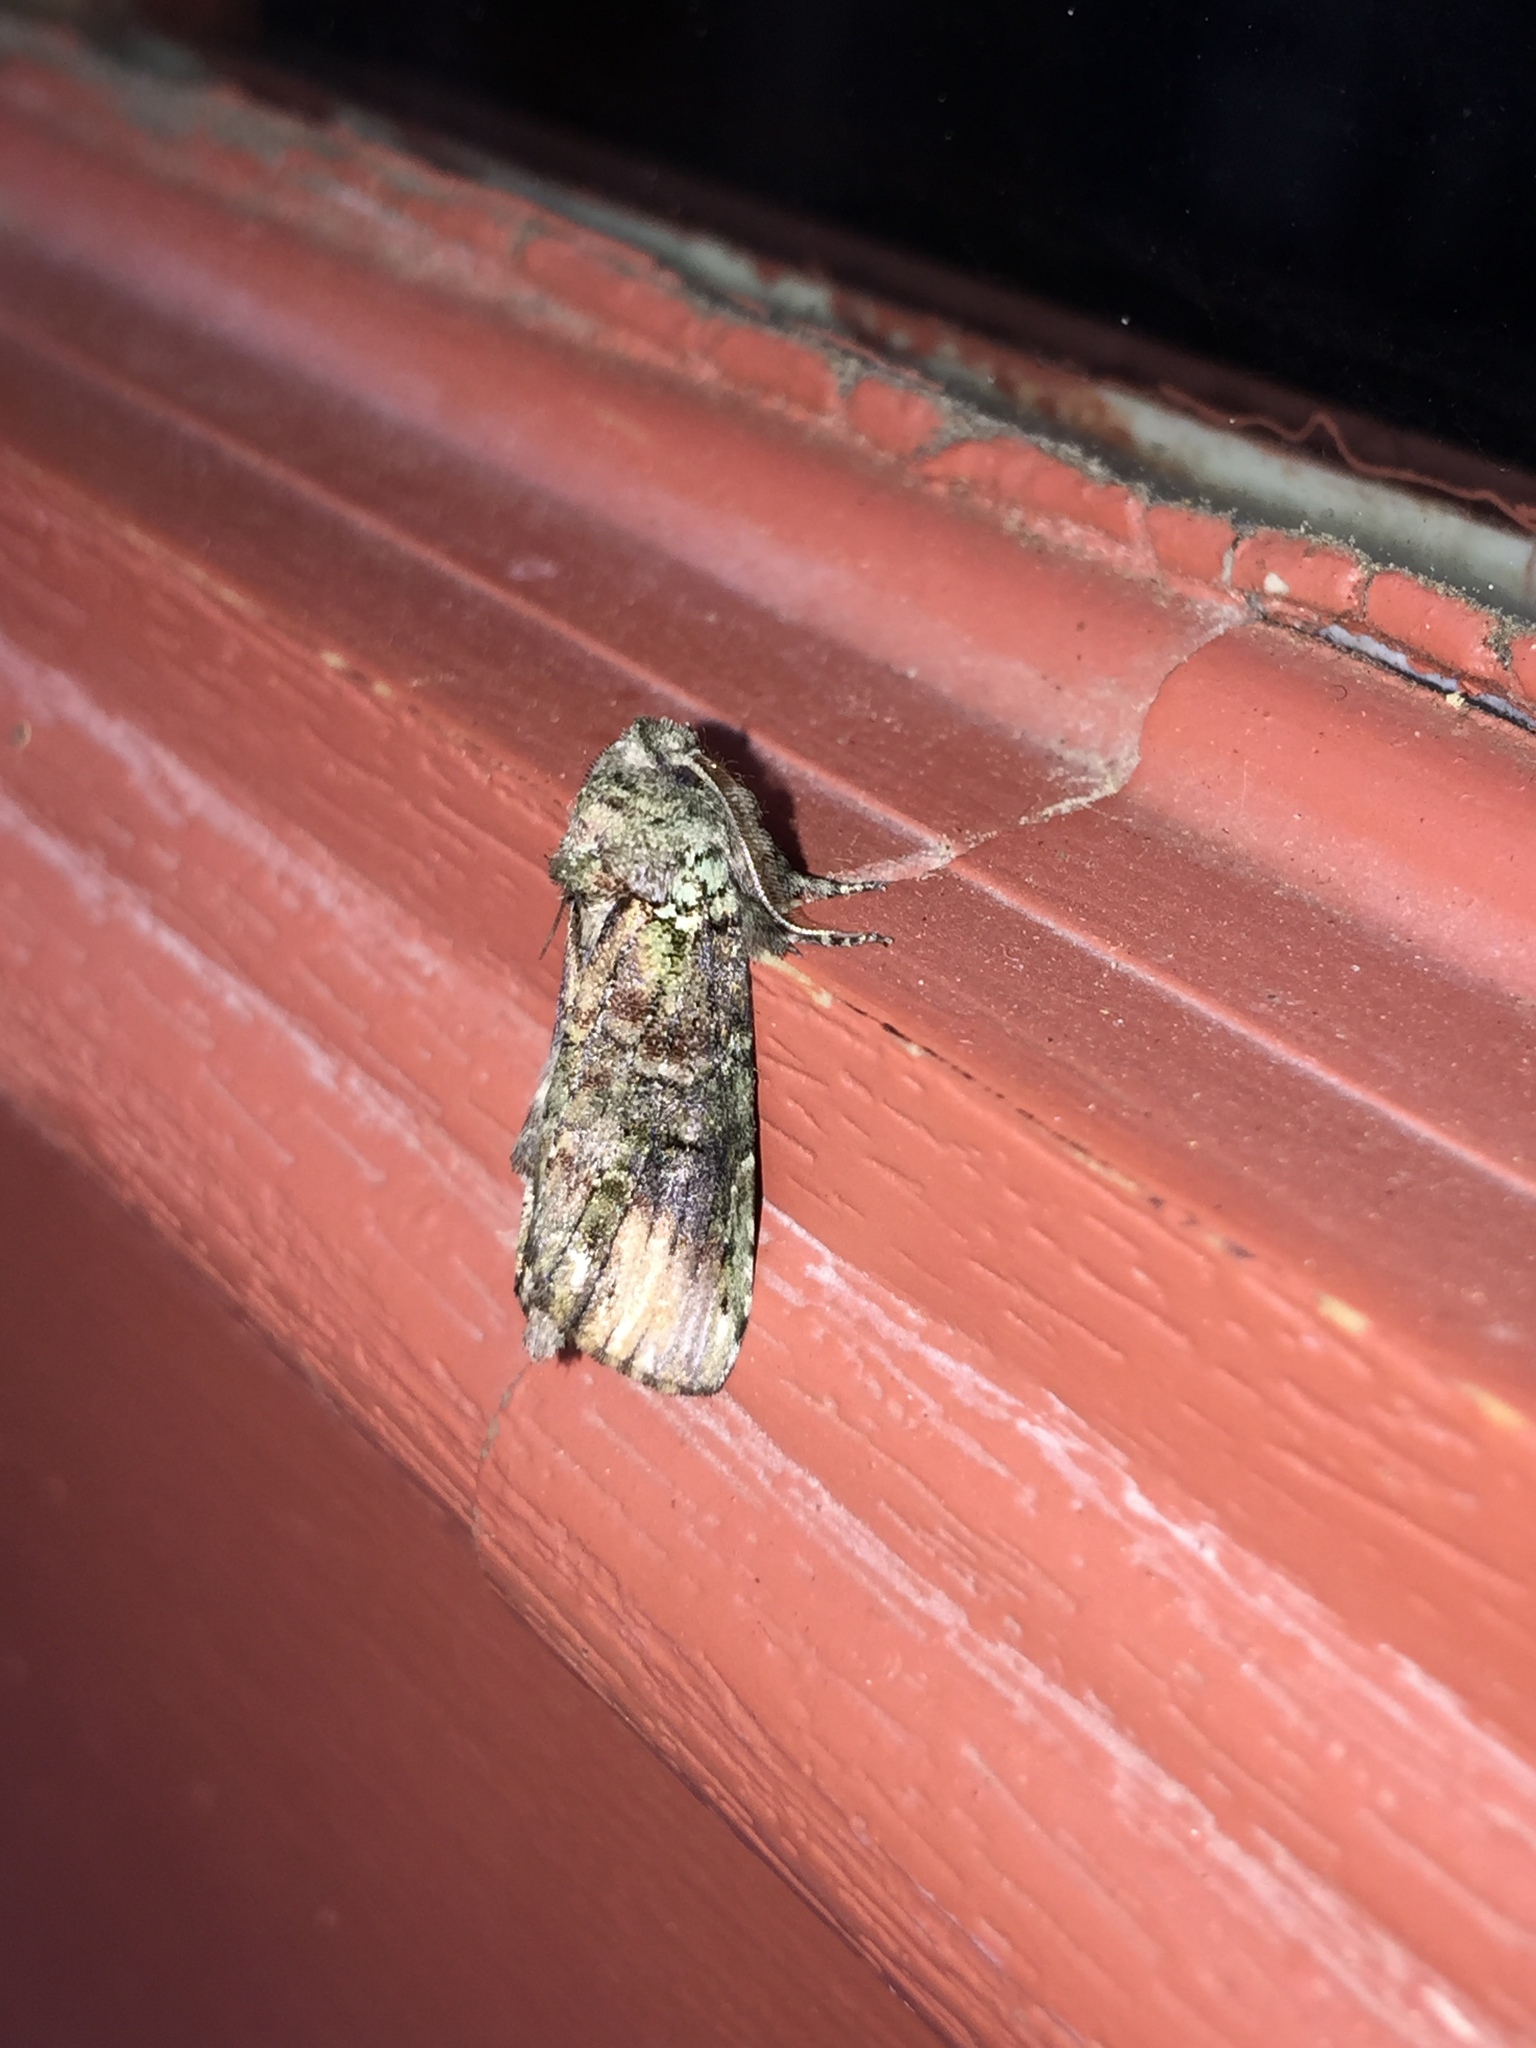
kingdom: Animalia
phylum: Arthropoda
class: Insecta
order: Lepidoptera
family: Notodontidae
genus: Schizura
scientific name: Schizura
